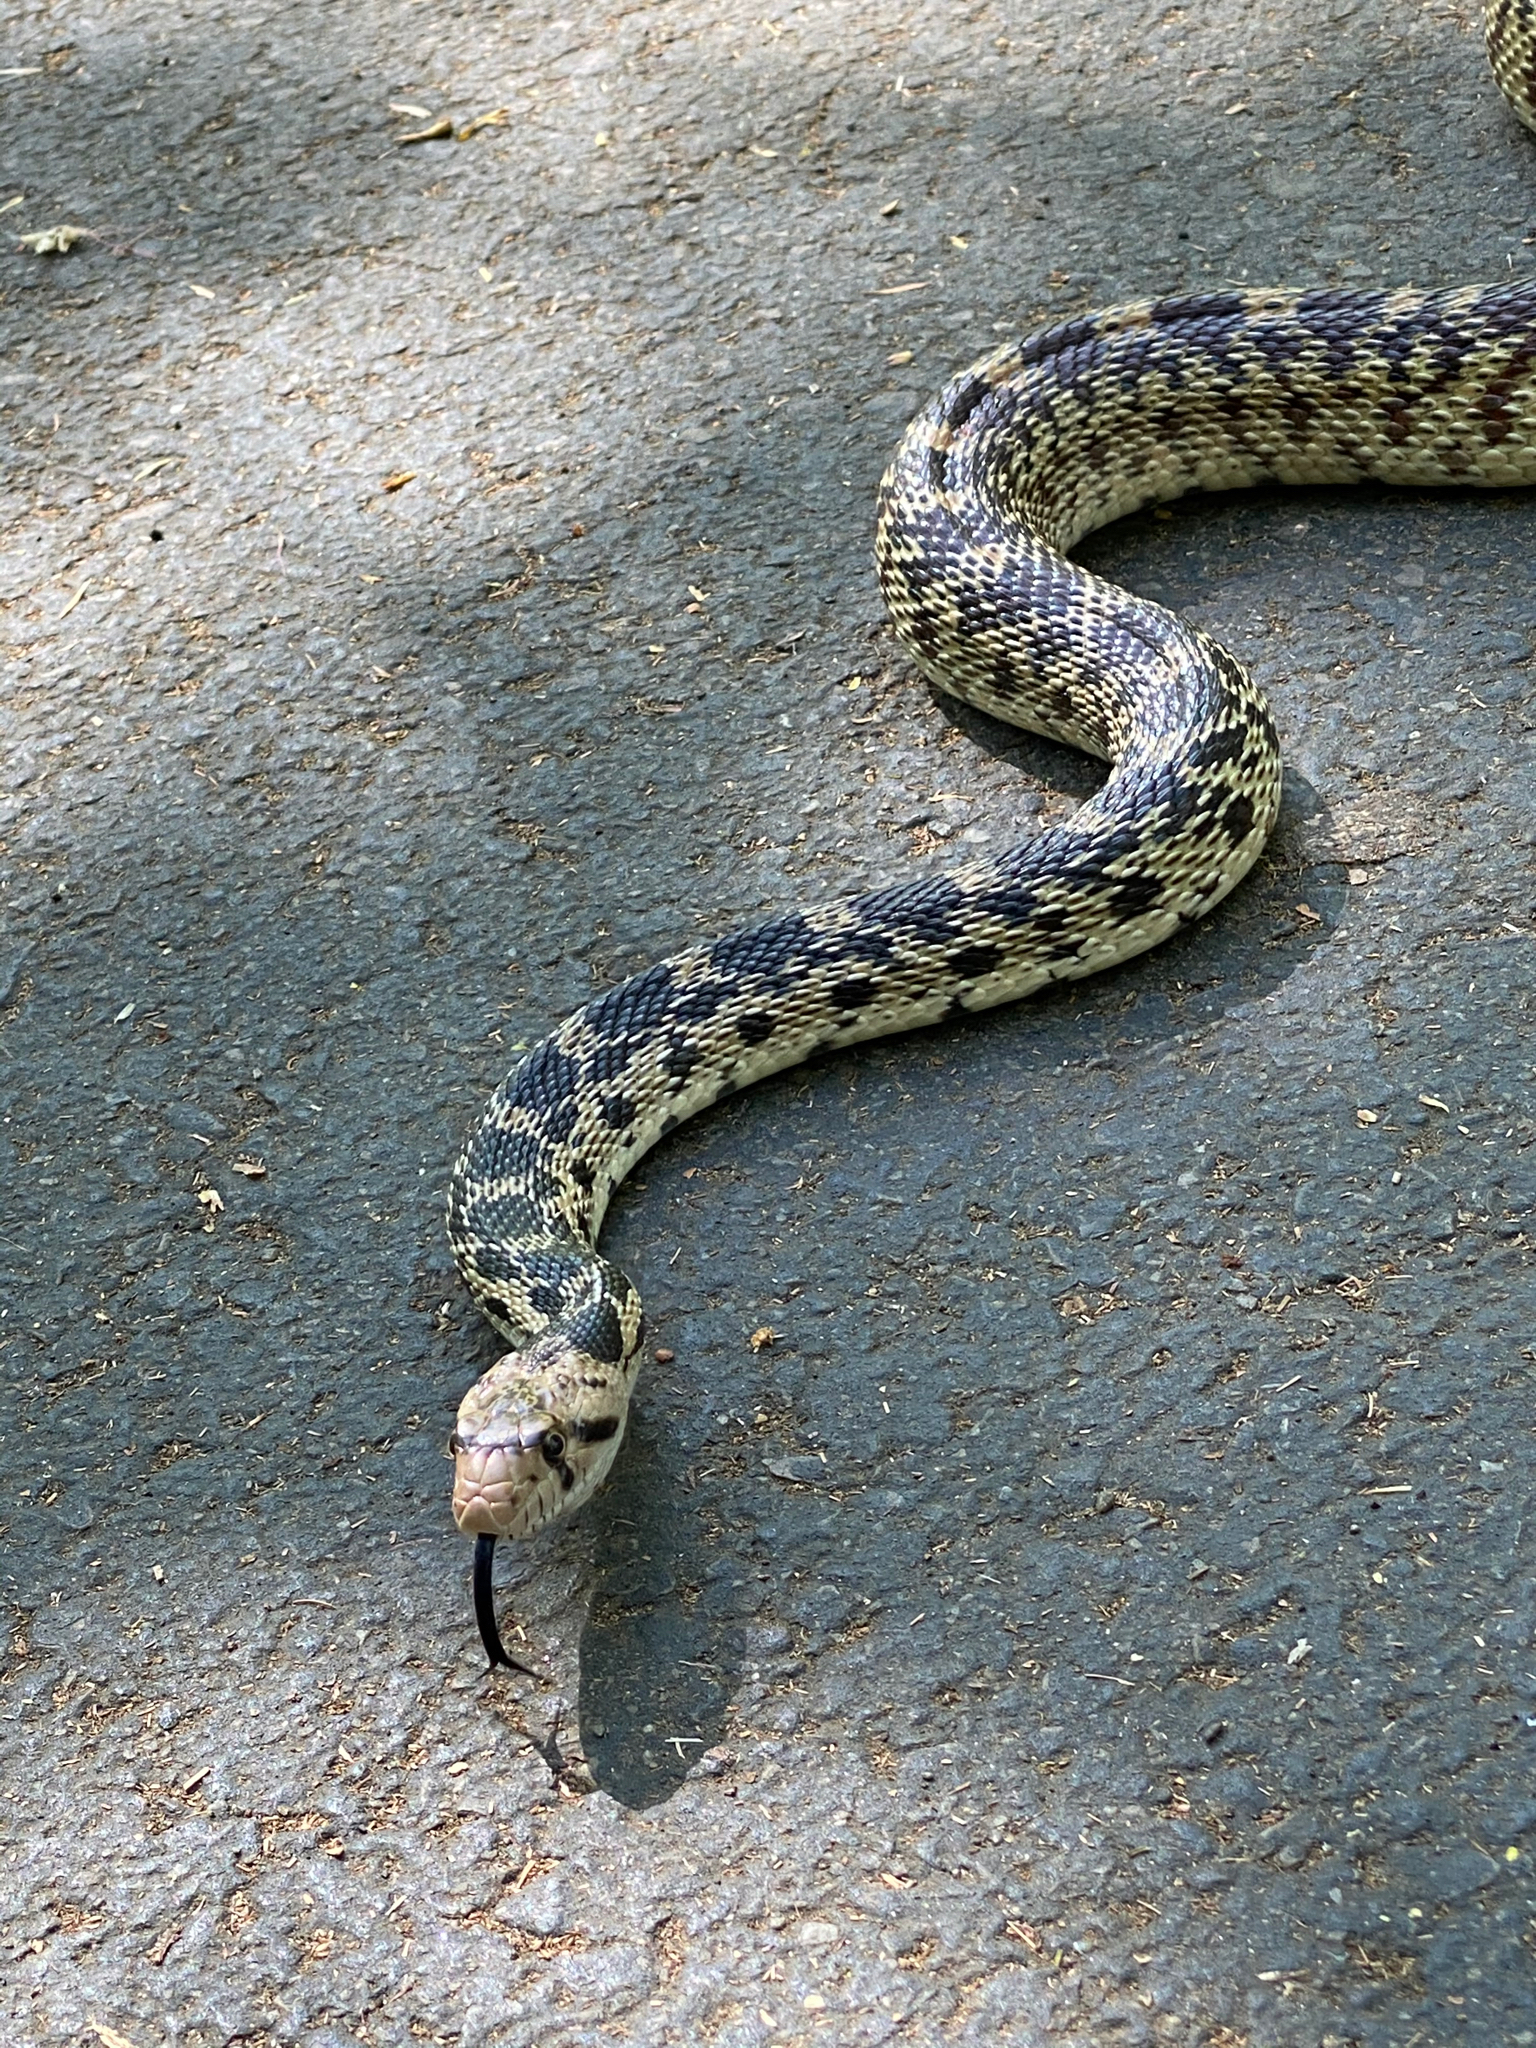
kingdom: Animalia
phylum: Chordata
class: Squamata
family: Colubridae
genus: Pituophis
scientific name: Pituophis catenifer
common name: Gopher snake
